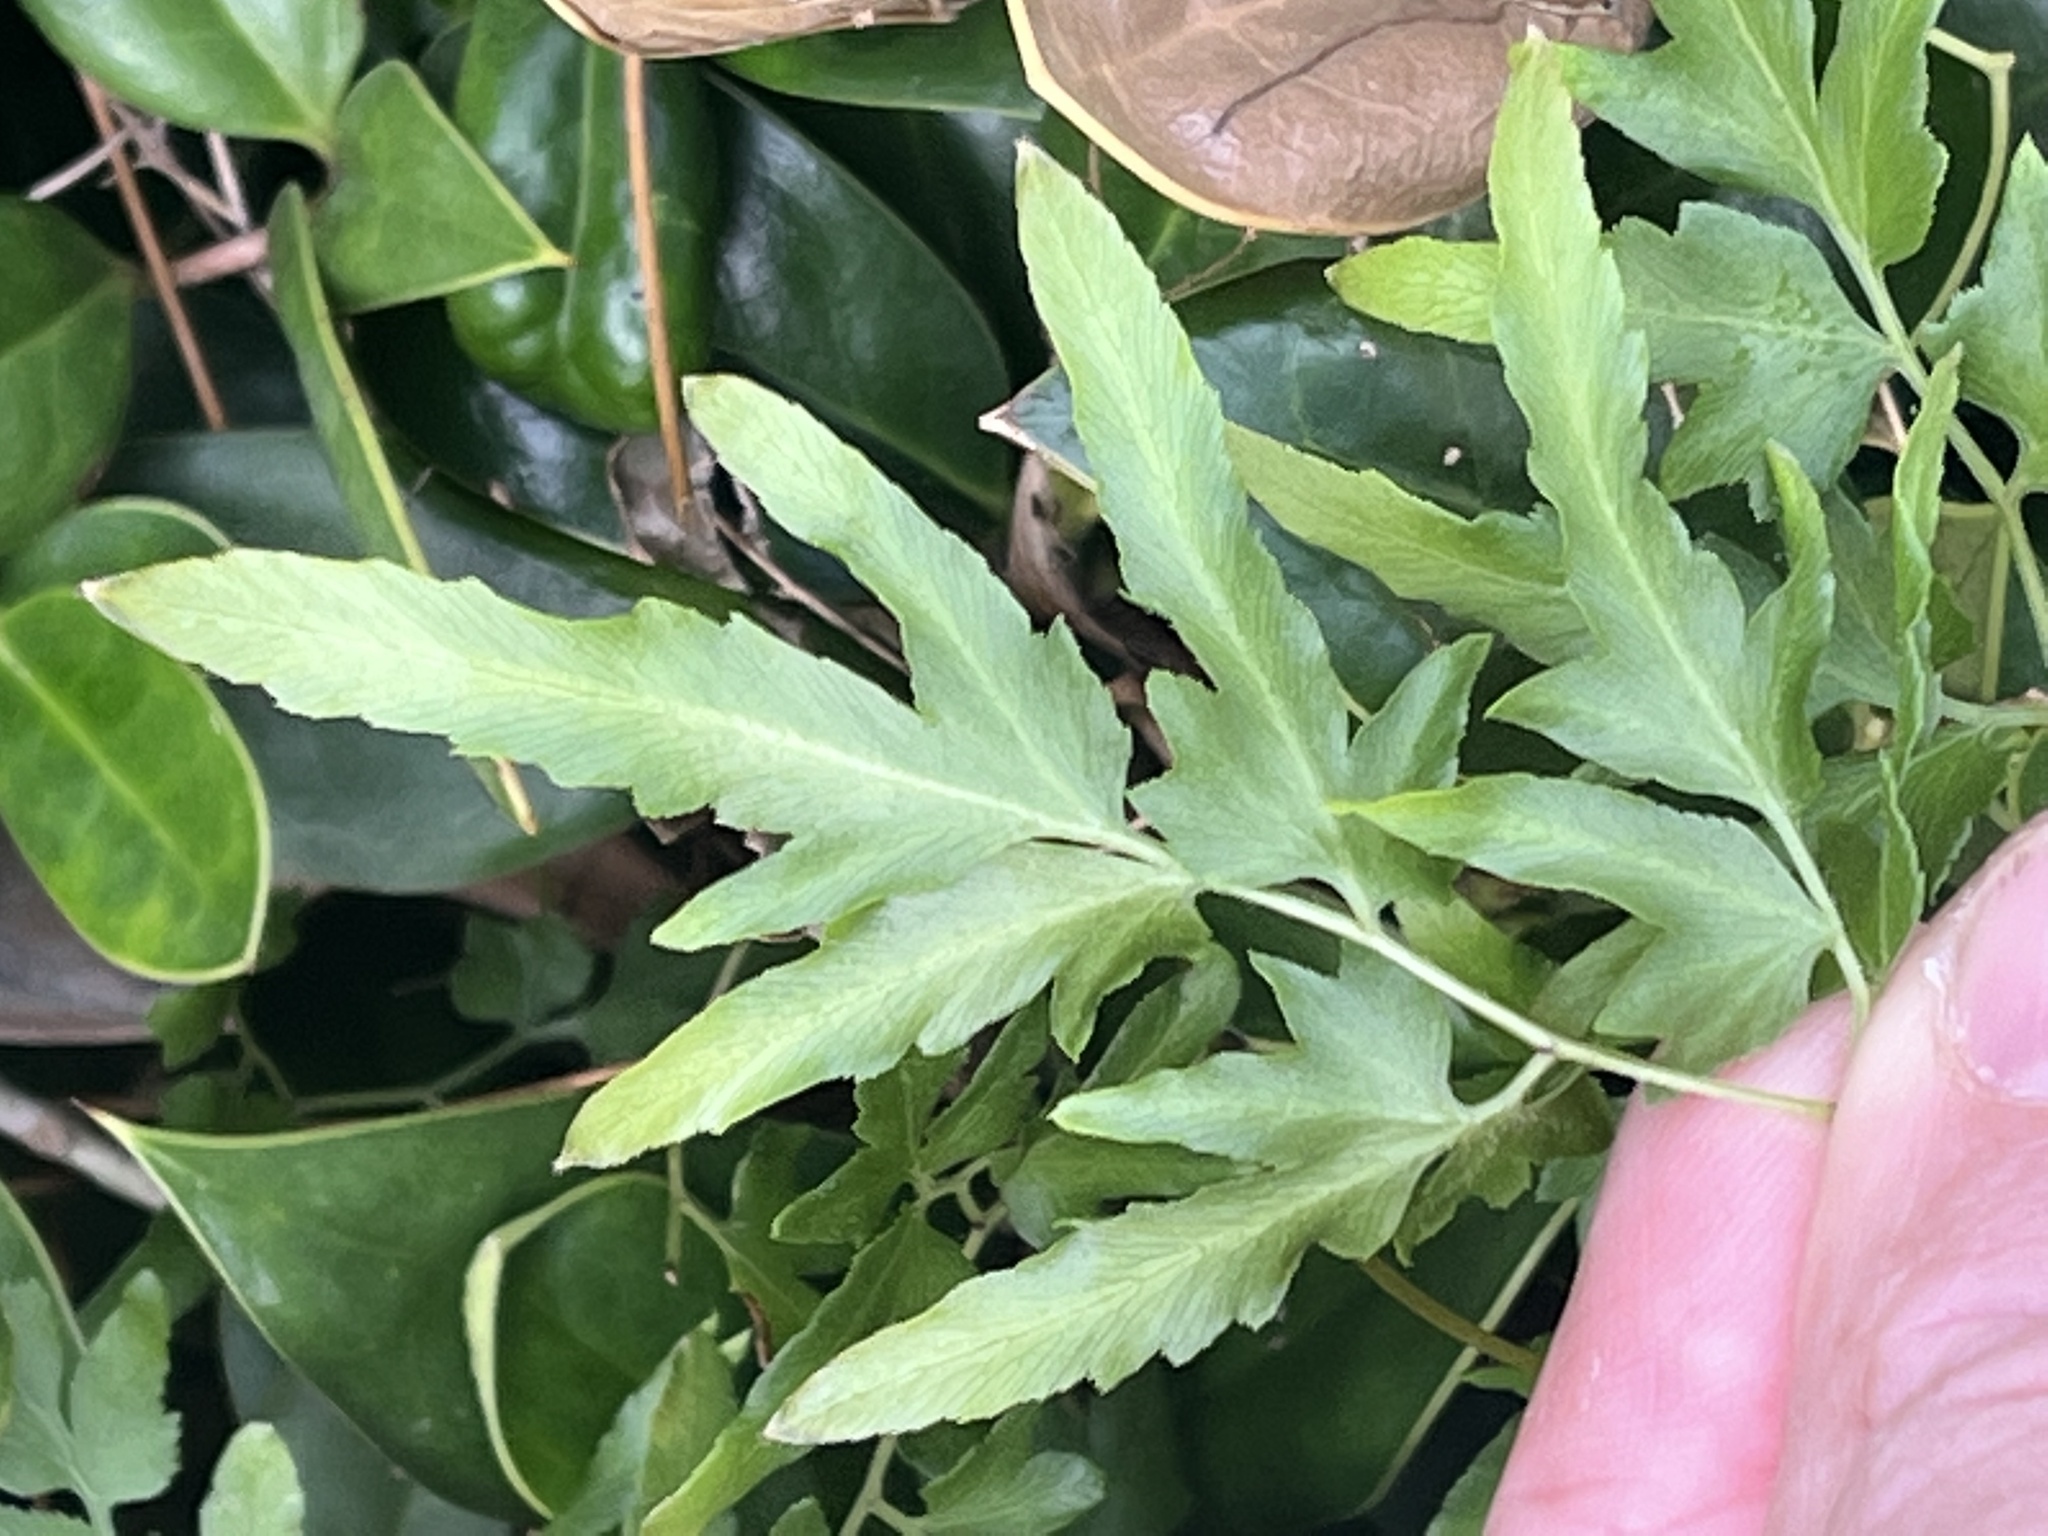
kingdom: Plantae
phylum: Tracheophyta
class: Polypodiopsida
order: Schizaeales
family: Lygodiaceae
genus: Lygodium
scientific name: Lygodium japonicum
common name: Japanese climbing fern
